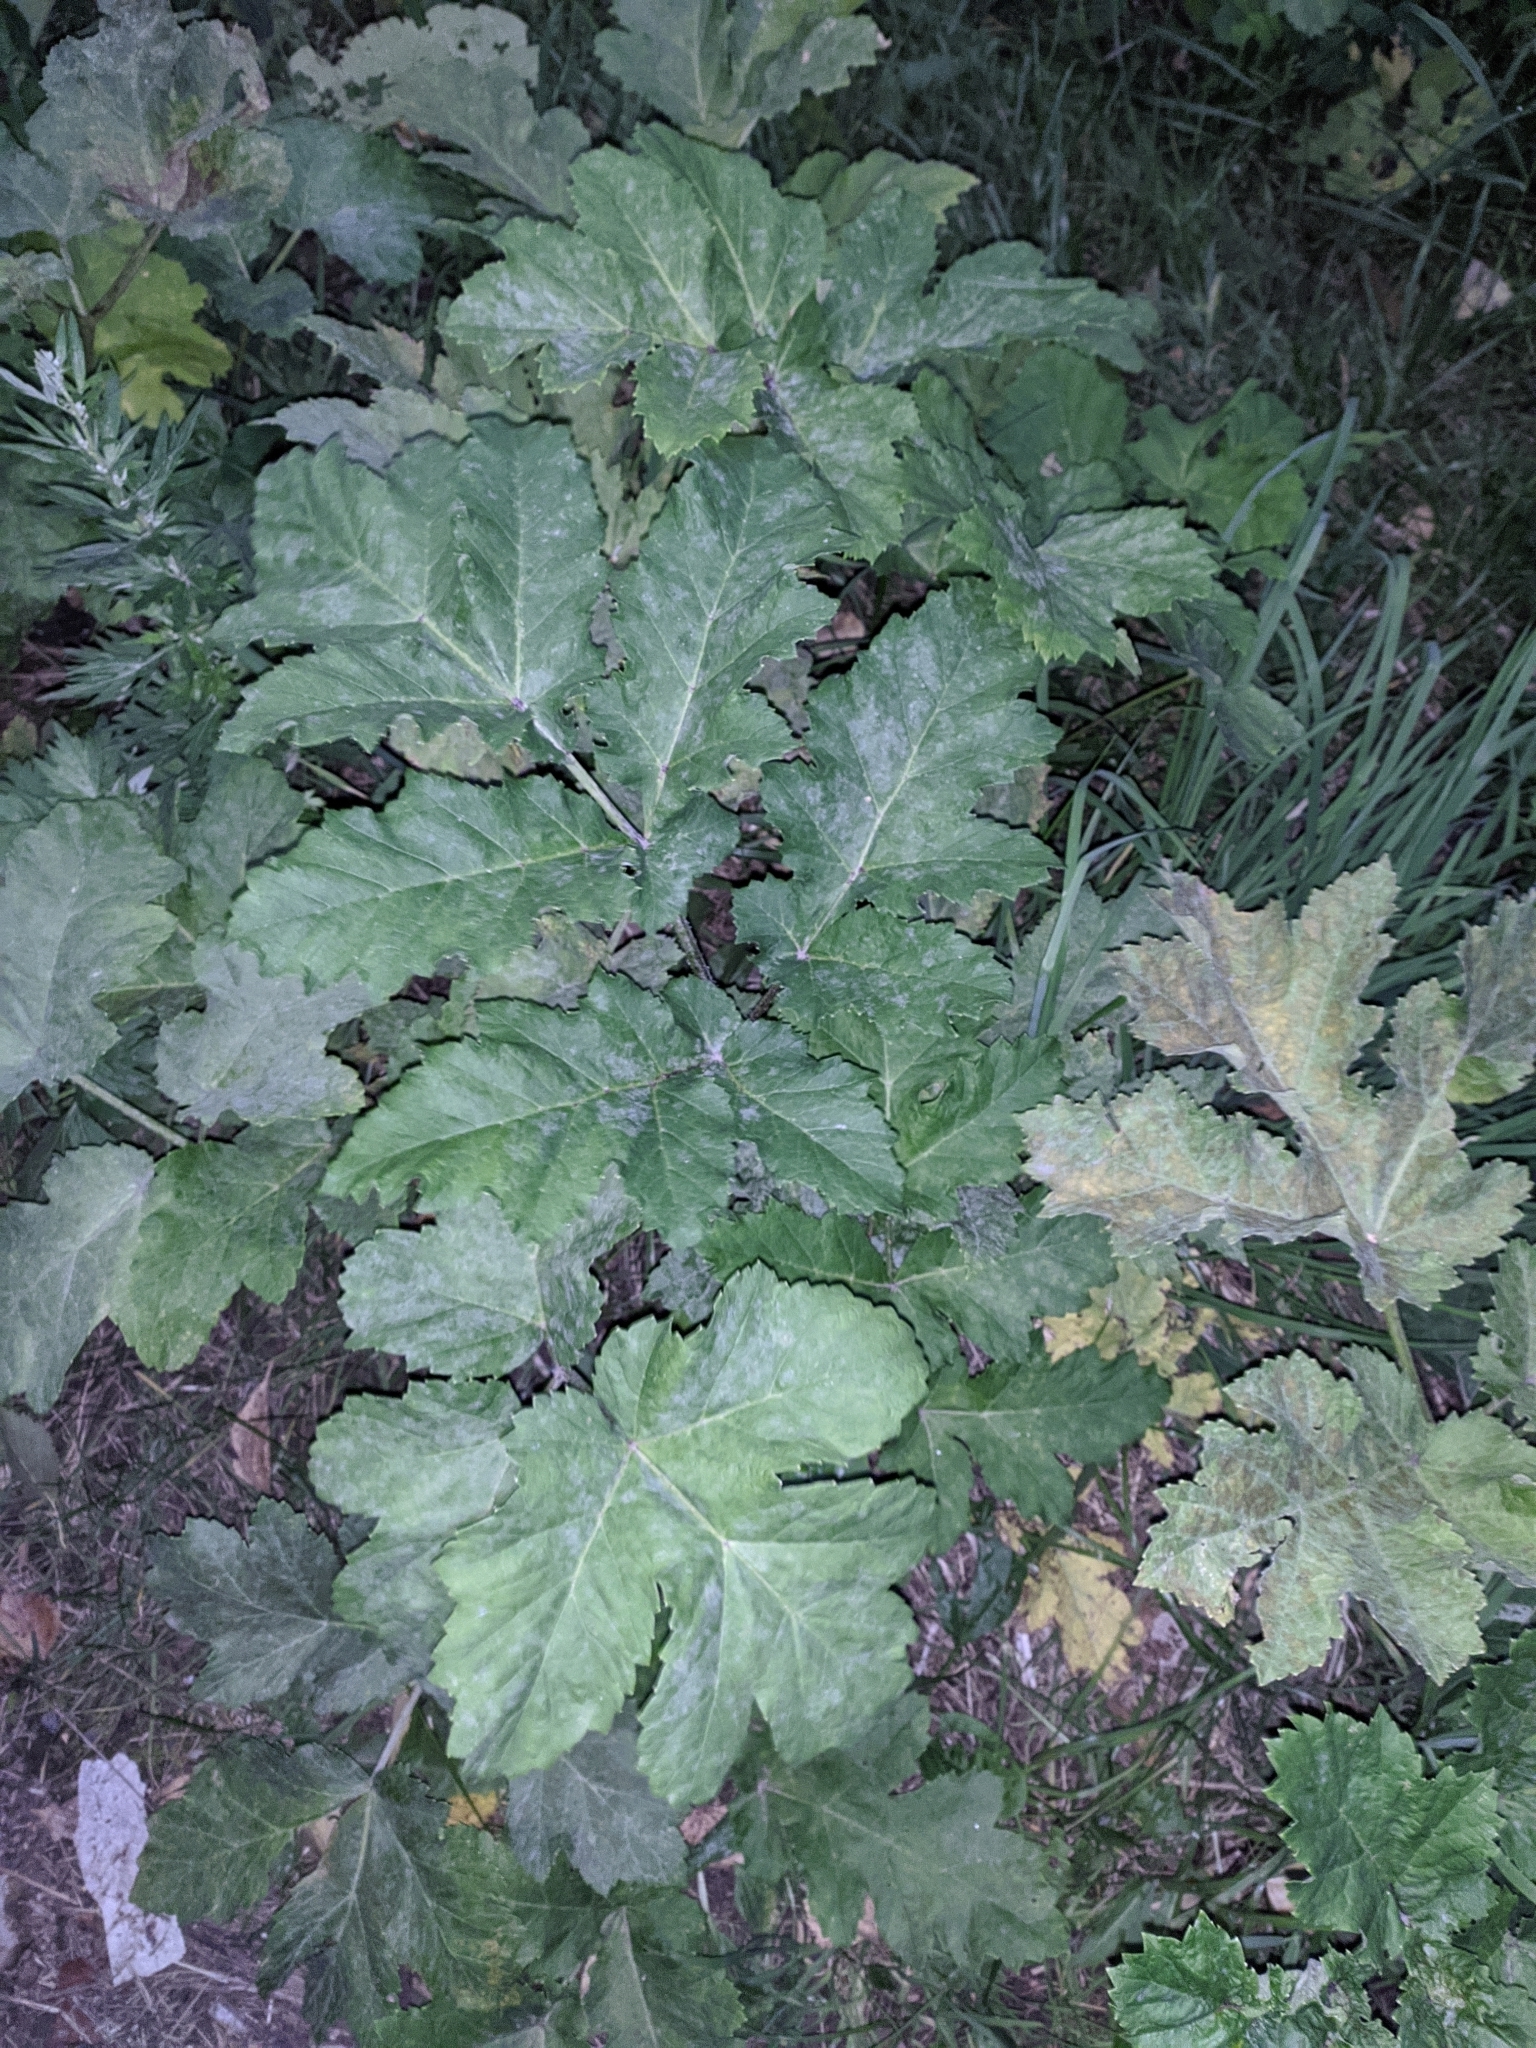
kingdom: Plantae
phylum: Tracheophyta
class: Magnoliopsida
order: Apiales
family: Apiaceae
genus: Heracleum
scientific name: Heracleum sosnowskyi
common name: Sosnowsky's hogweed
